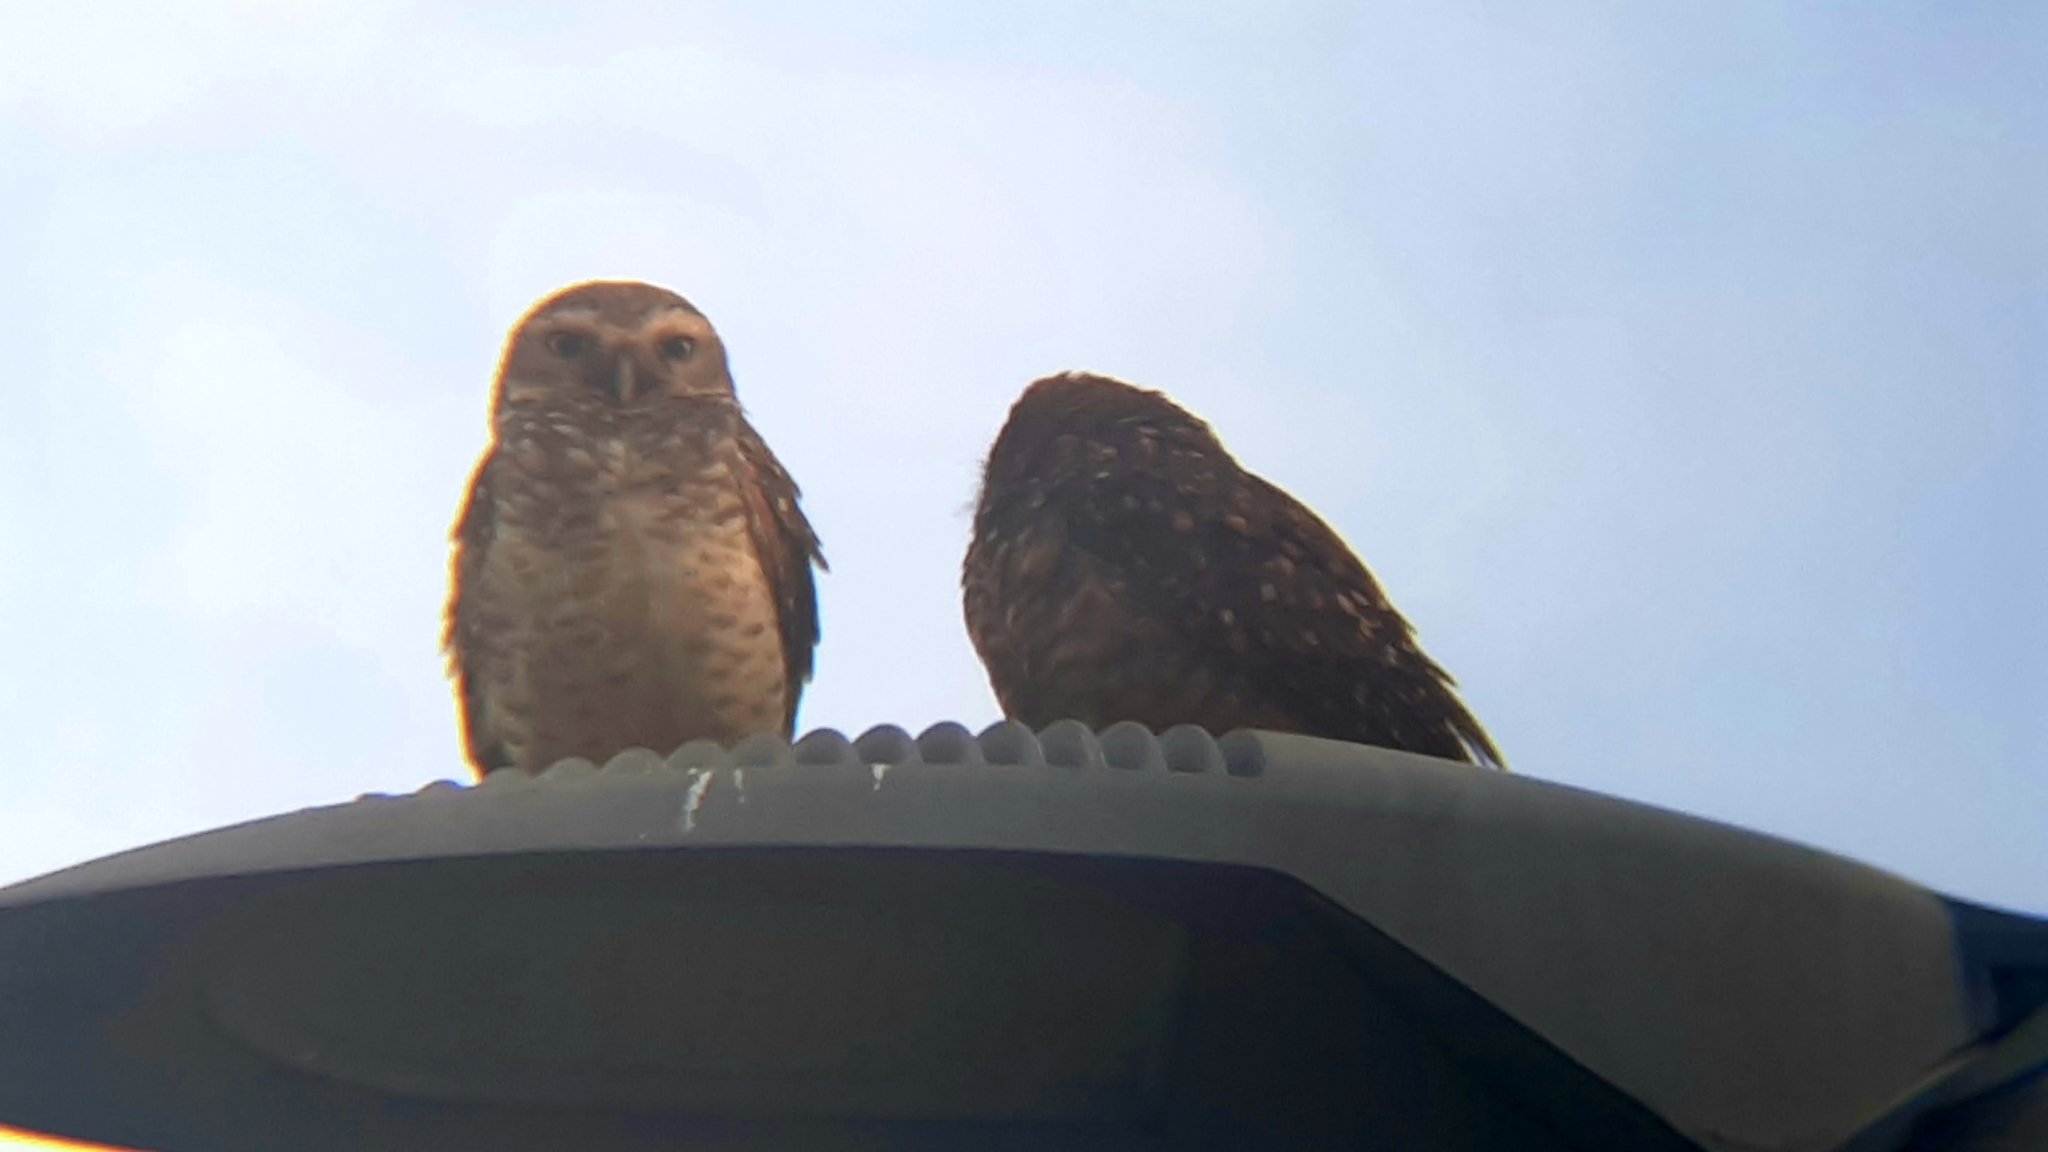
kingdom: Animalia
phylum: Chordata
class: Aves
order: Strigiformes
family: Strigidae
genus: Athene
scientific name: Athene cunicularia
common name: Burrowing owl
